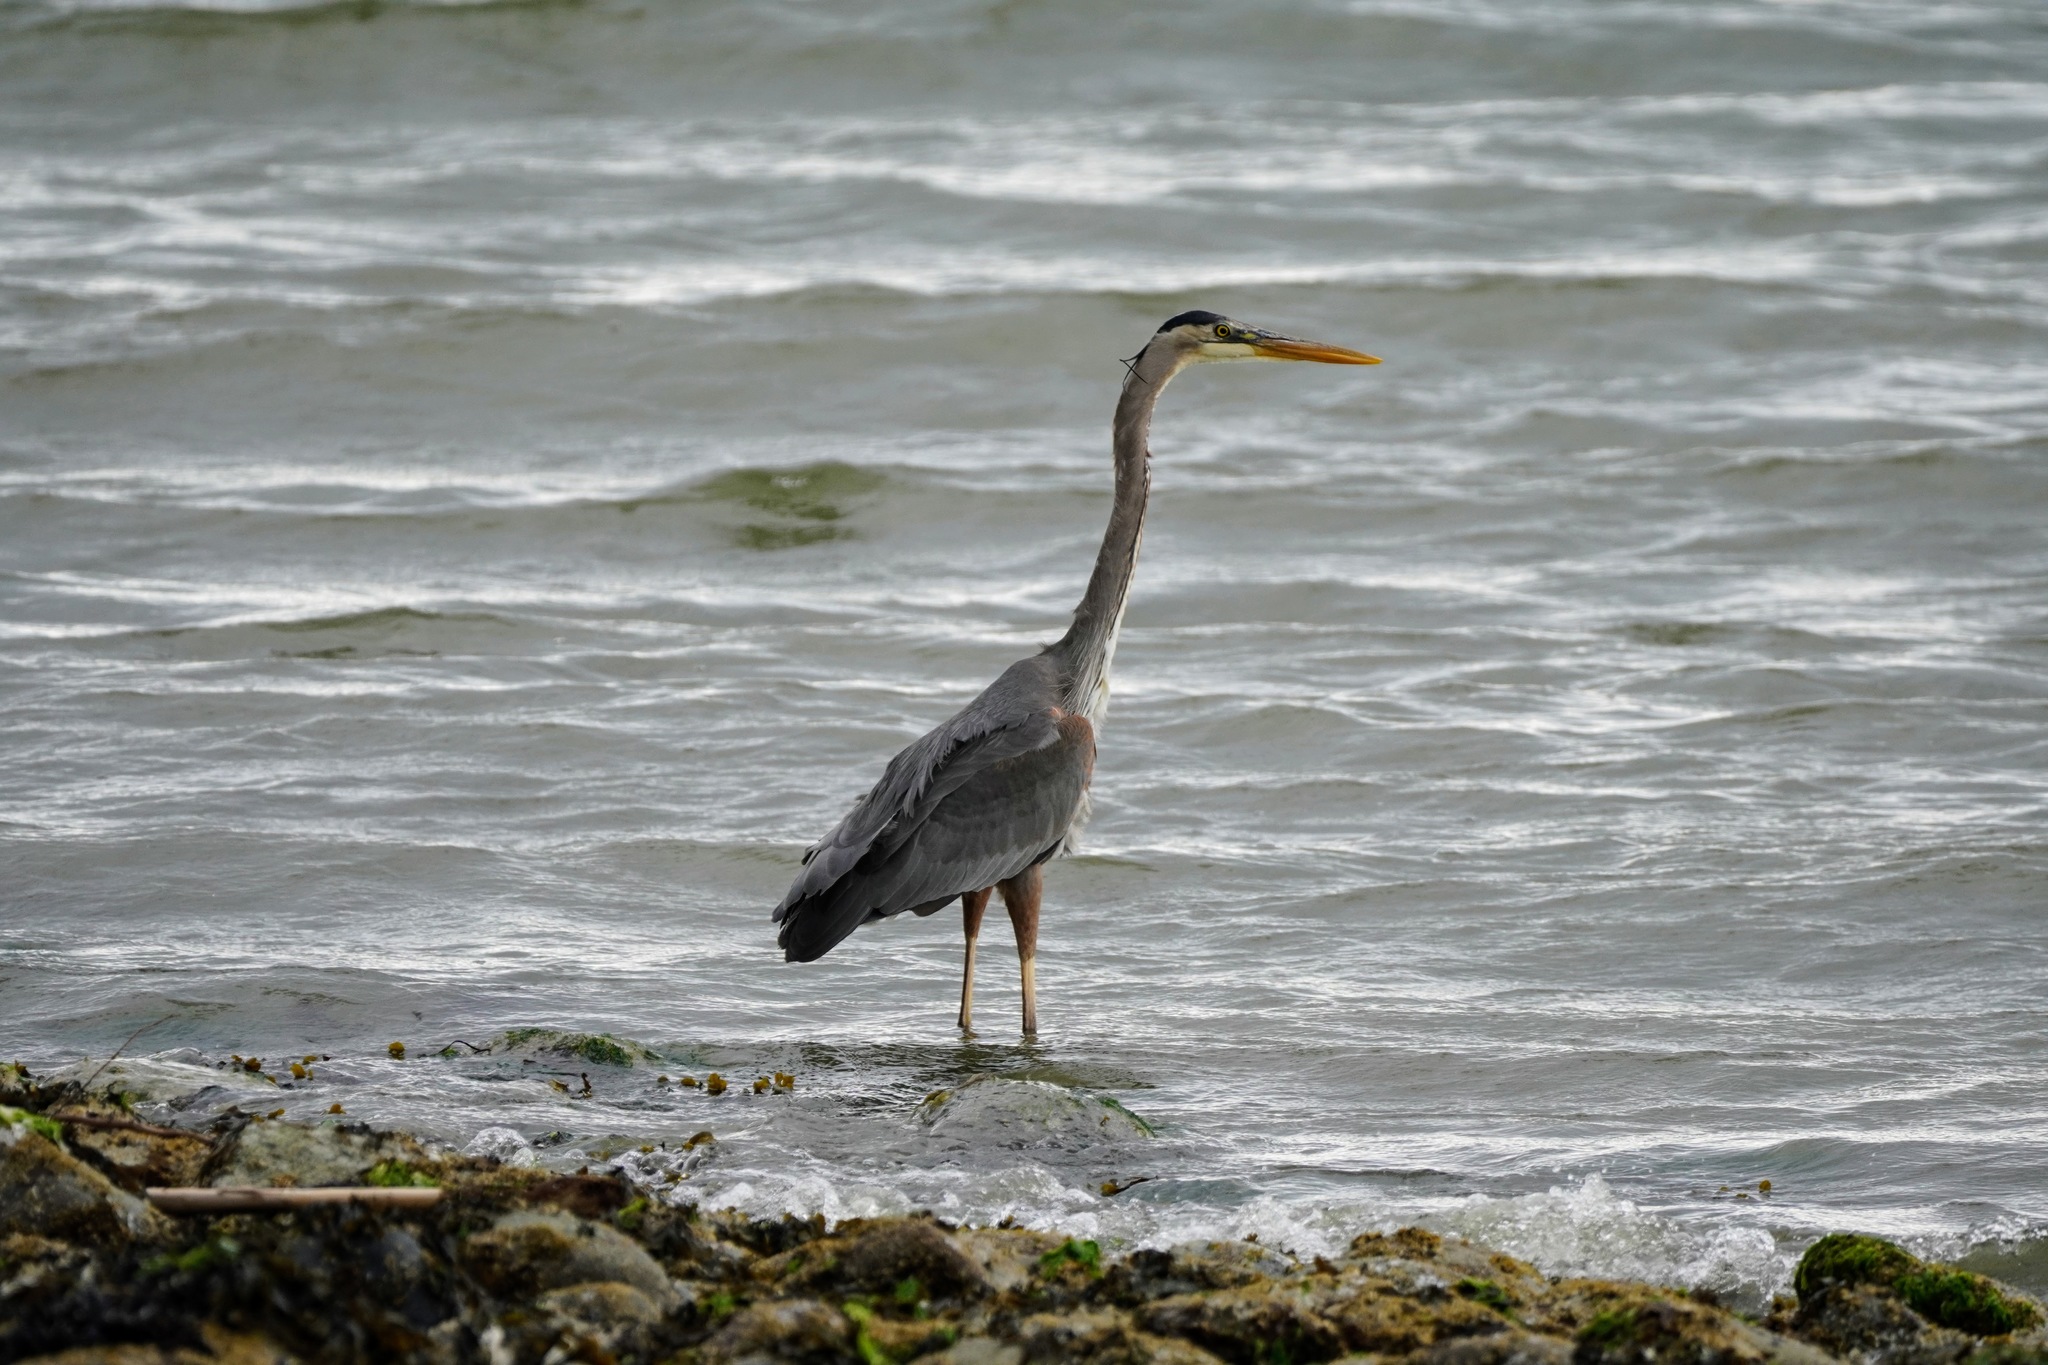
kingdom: Animalia
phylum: Chordata
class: Aves
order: Pelecaniformes
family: Ardeidae
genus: Ardea
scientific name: Ardea herodias
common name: Great blue heron
